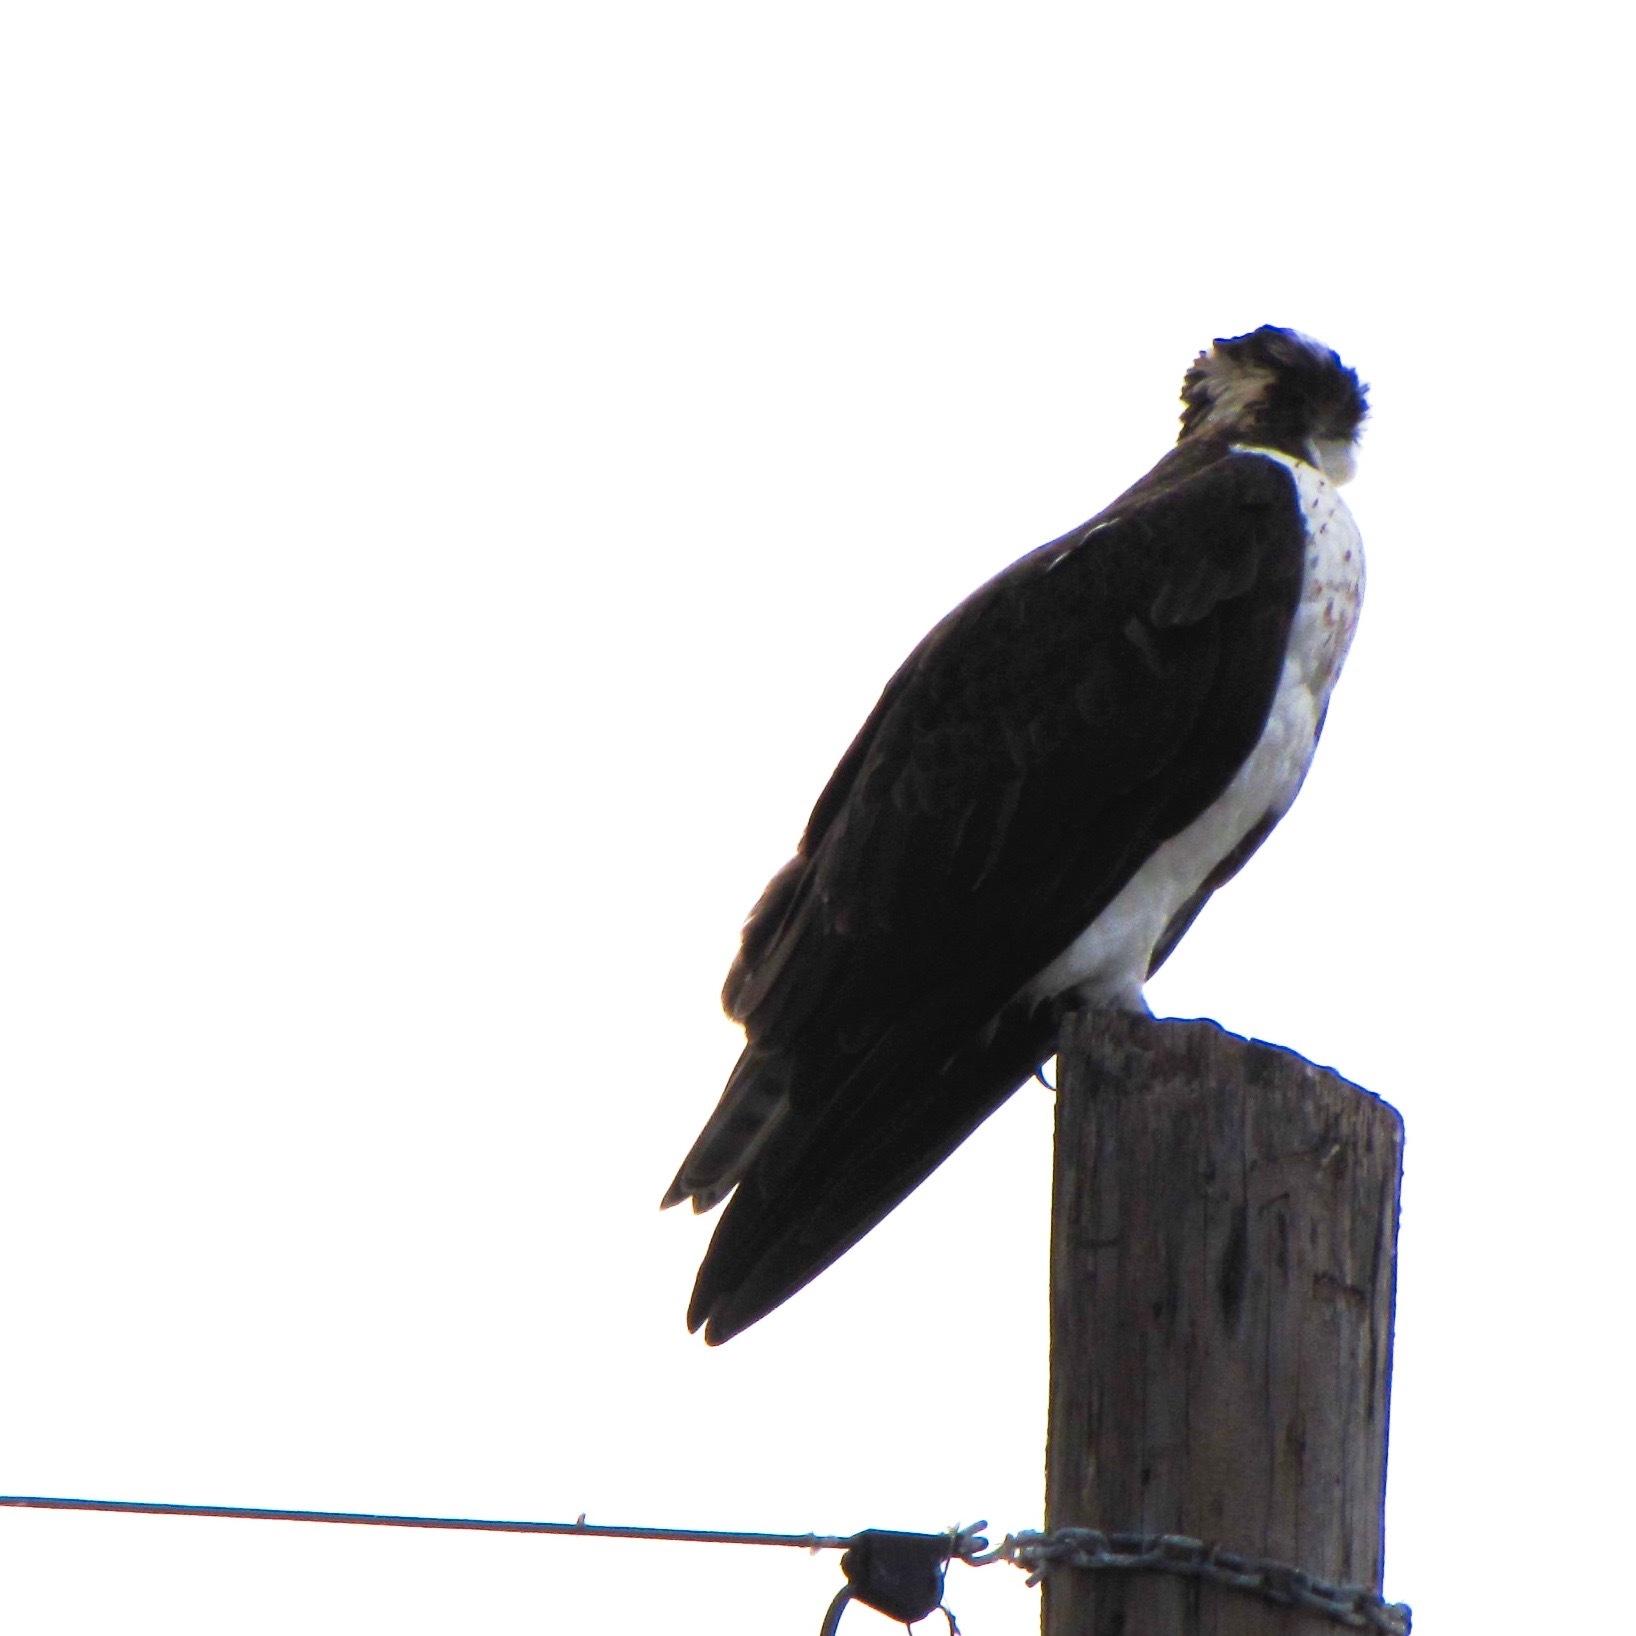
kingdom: Animalia
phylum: Chordata
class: Aves
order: Accipitriformes
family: Pandionidae
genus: Pandion
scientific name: Pandion haliaetus
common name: Osprey
